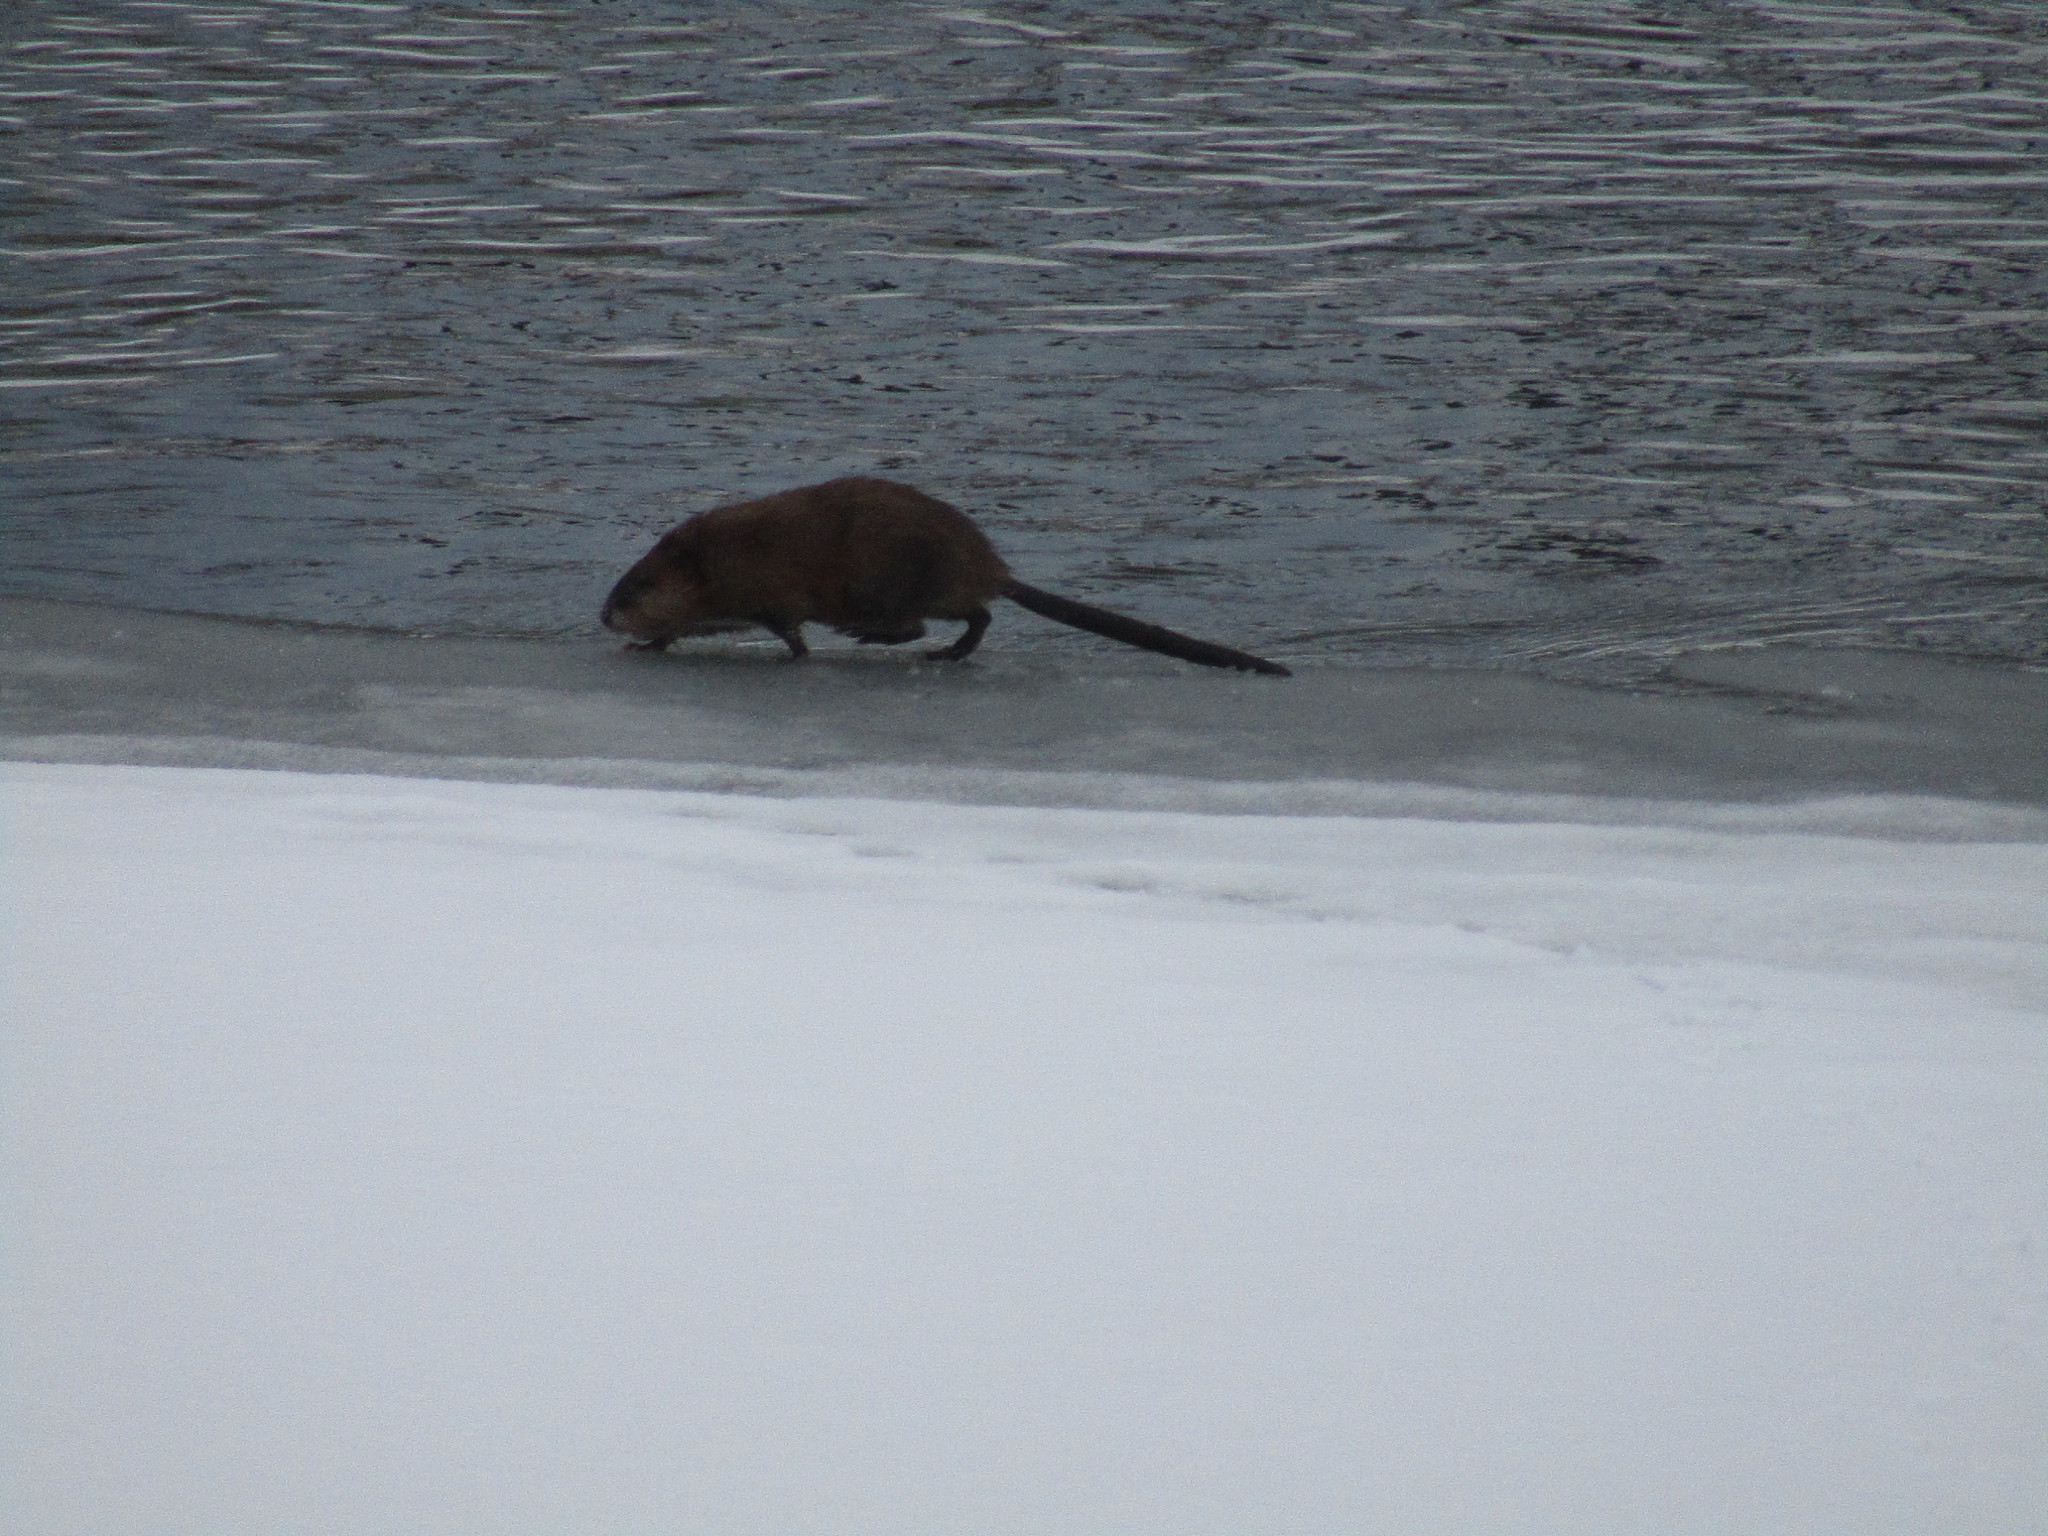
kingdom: Animalia
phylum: Chordata
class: Mammalia
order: Rodentia
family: Cricetidae
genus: Ondatra
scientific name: Ondatra zibethicus
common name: Muskrat
